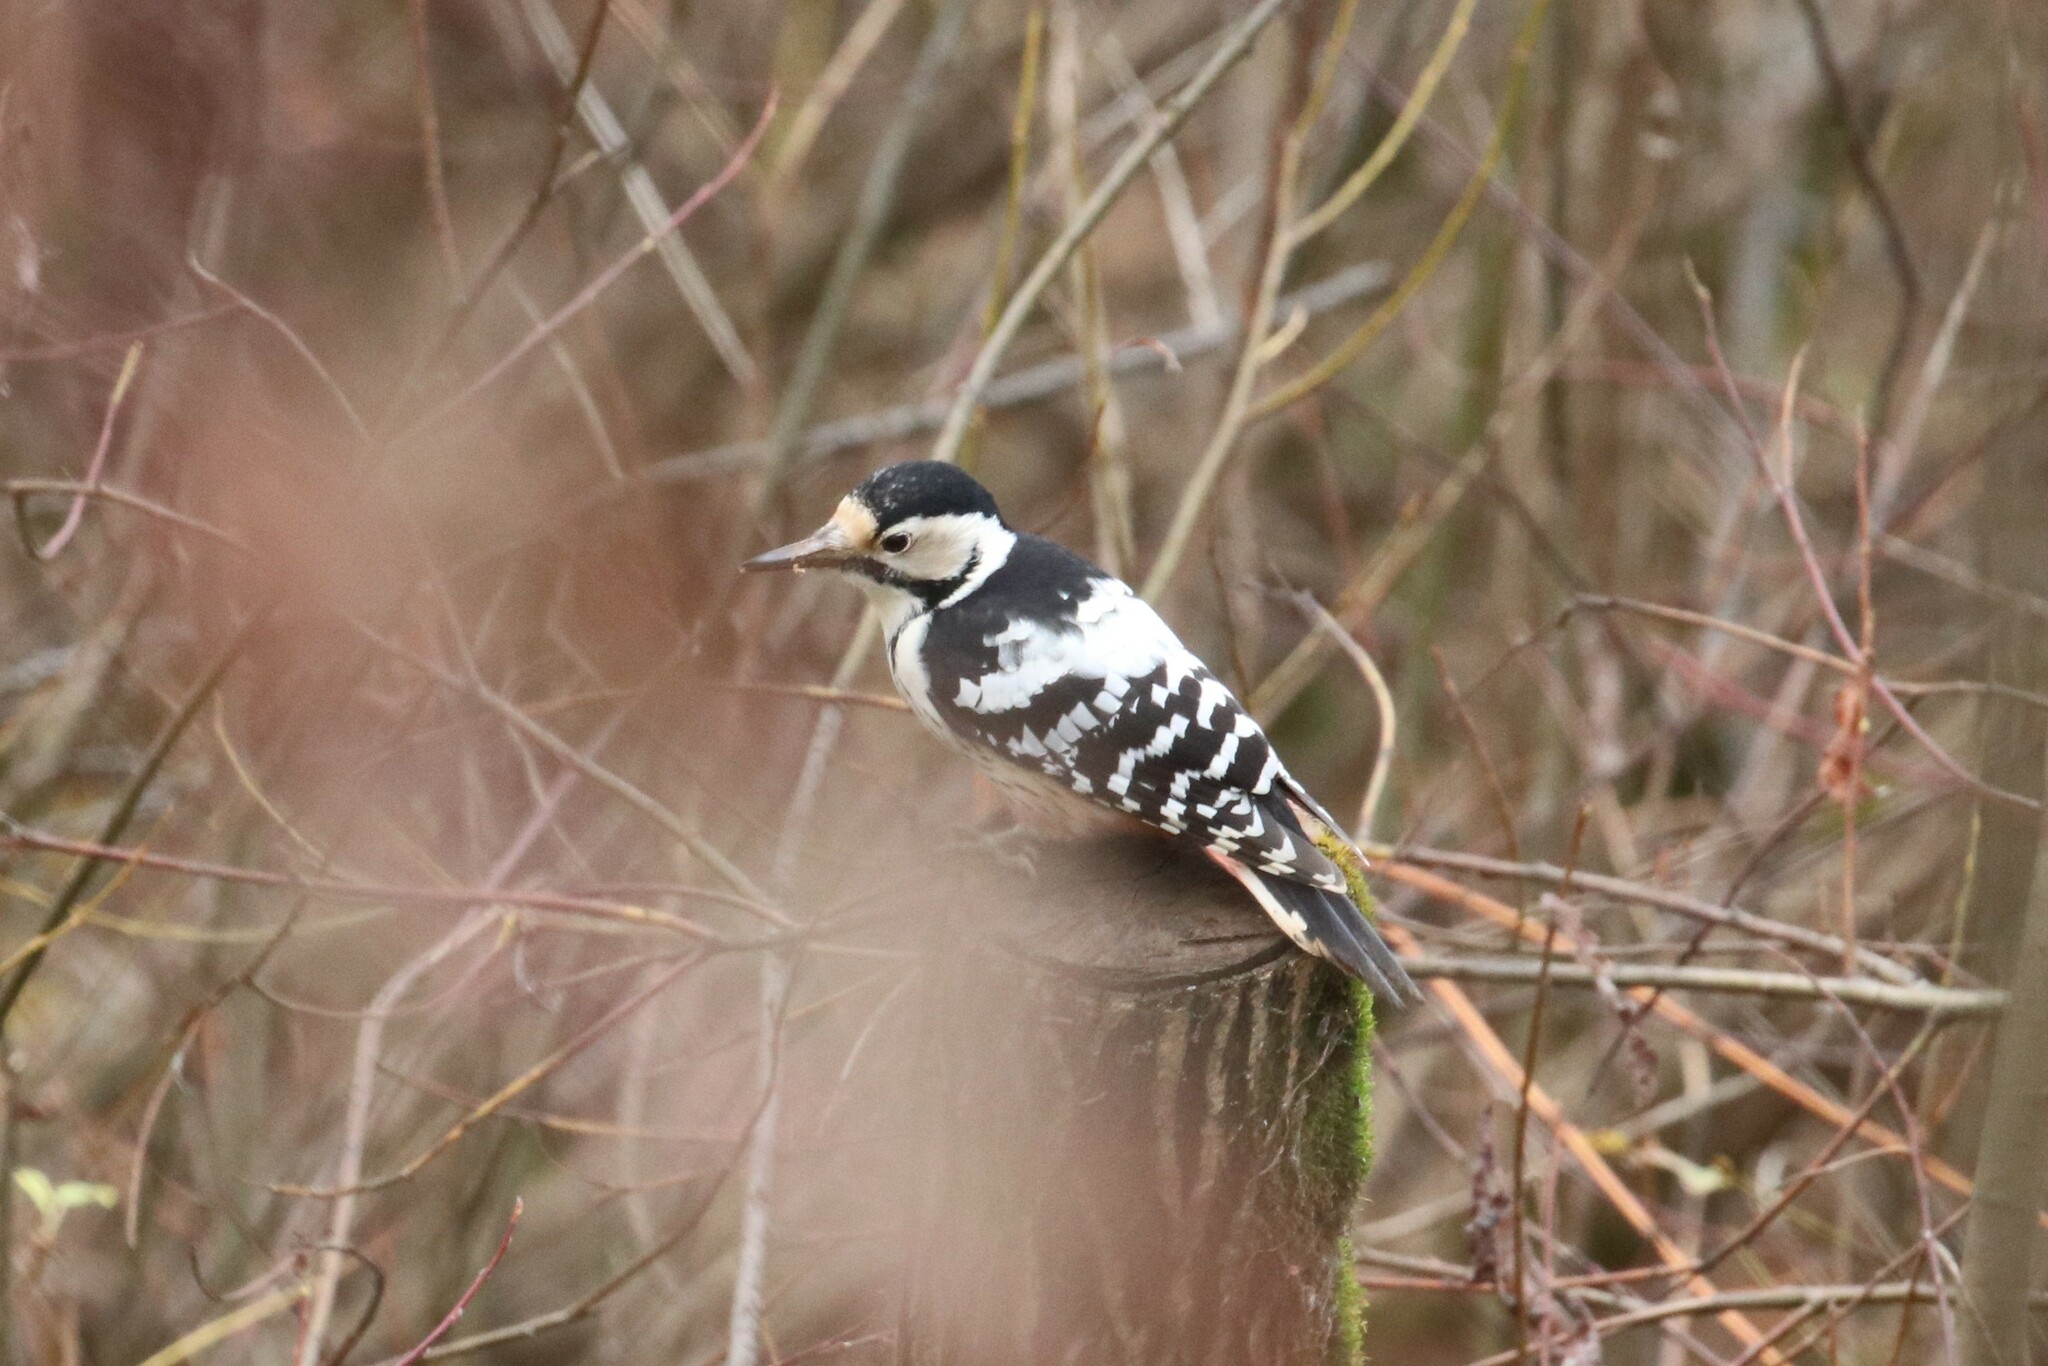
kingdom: Animalia
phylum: Chordata
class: Aves
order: Piciformes
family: Picidae
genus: Dendrocopos
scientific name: Dendrocopos leucotos
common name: White-backed woodpecker
